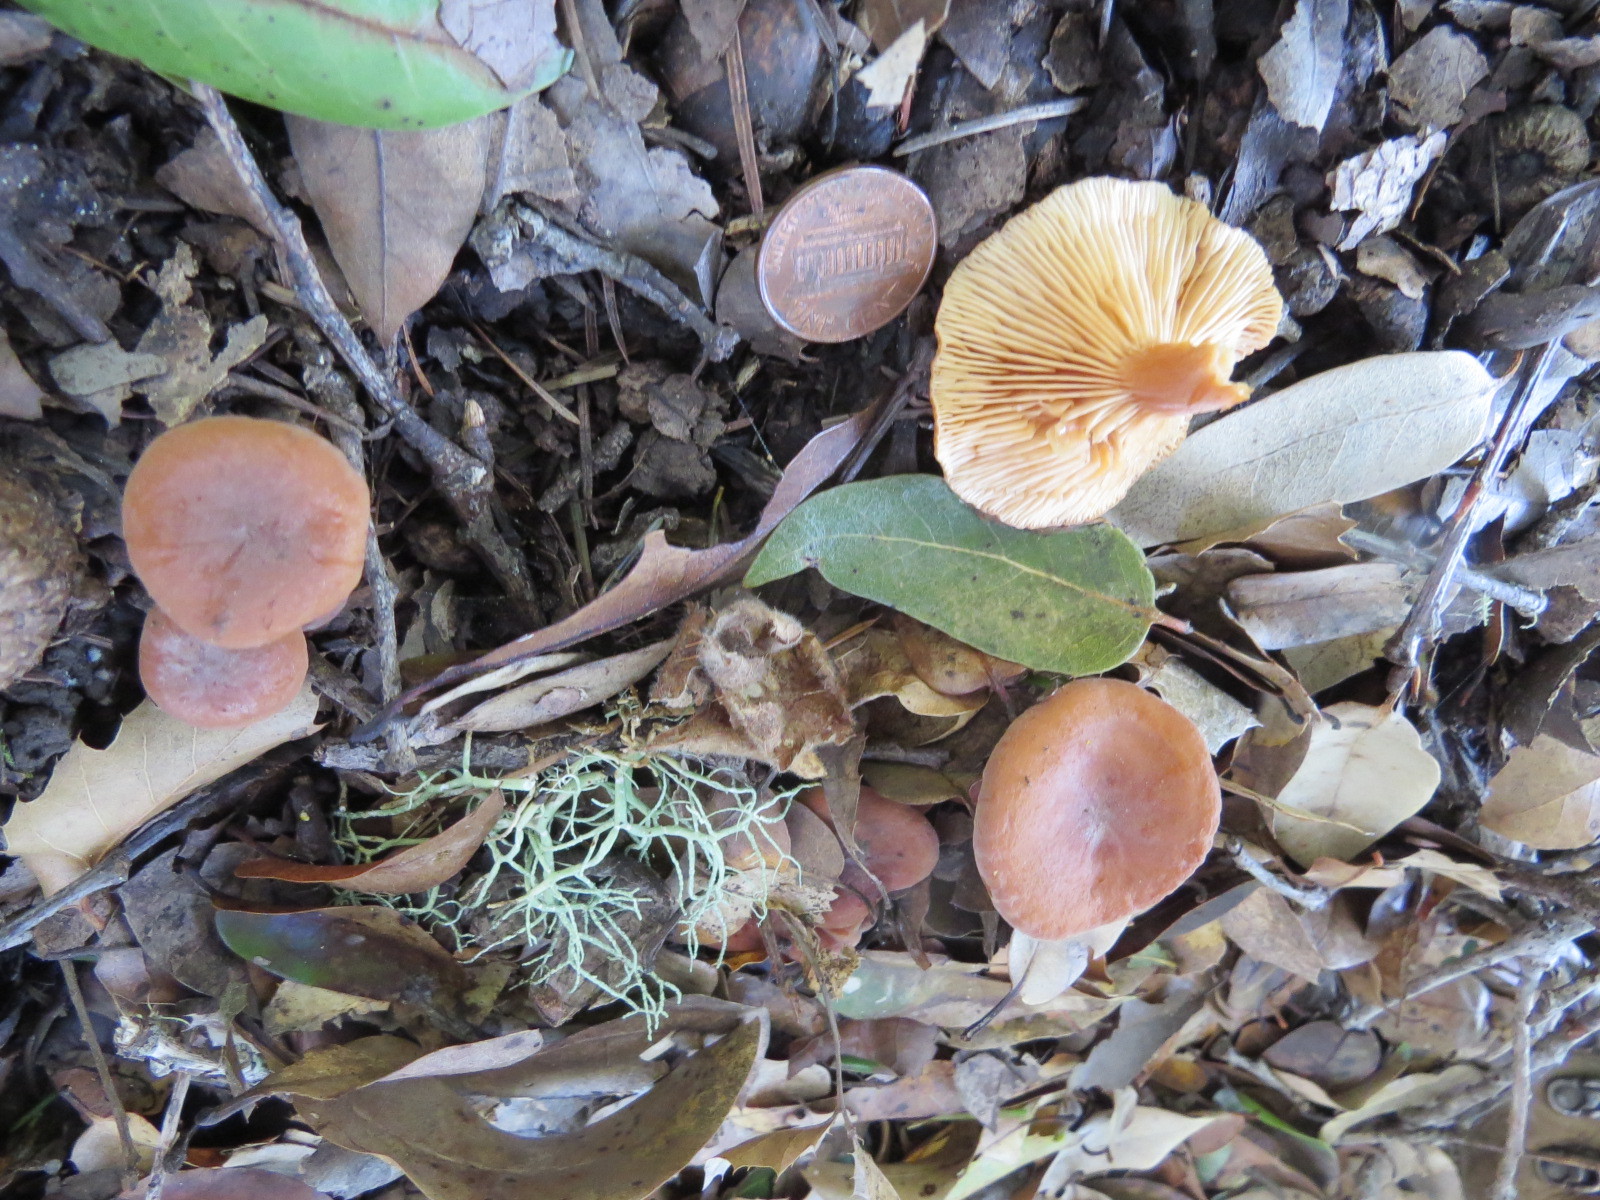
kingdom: Fungi
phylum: Basidiomycota
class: Agaricomycetes
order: Russulales
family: Russulaceae
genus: Lactarius
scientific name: Lactarius rubidus
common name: Candy cap
